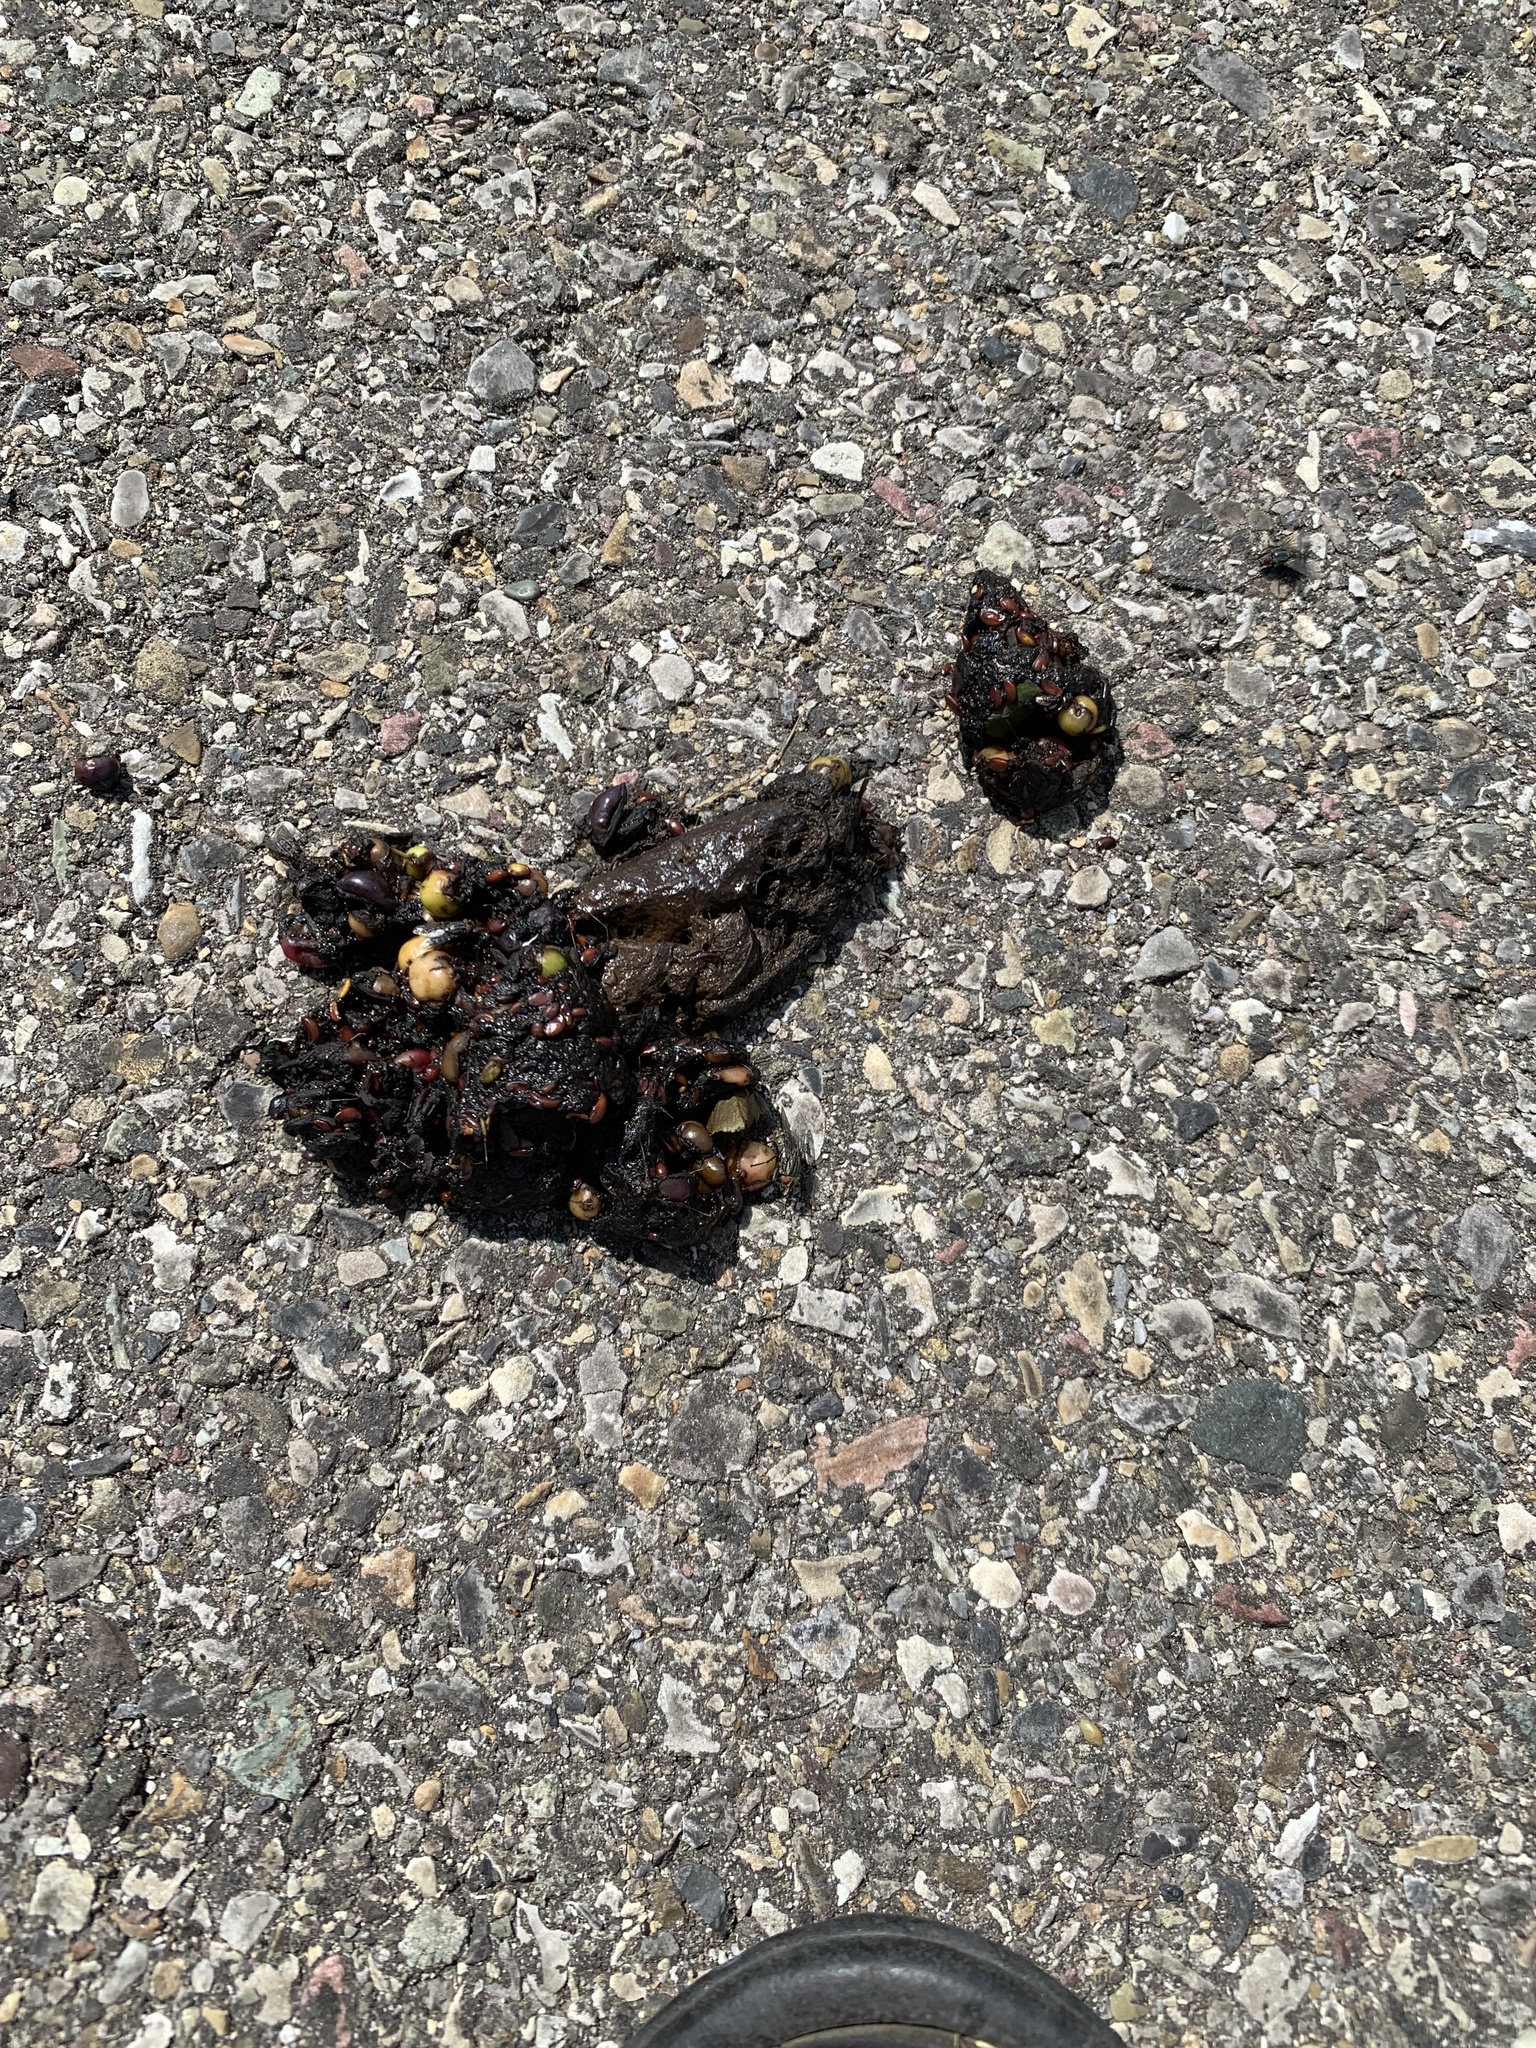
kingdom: Animalia
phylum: Chordata
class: Mammalia
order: Carnivora
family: Canidae
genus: Canis
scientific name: Canis latrans
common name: Coyote
